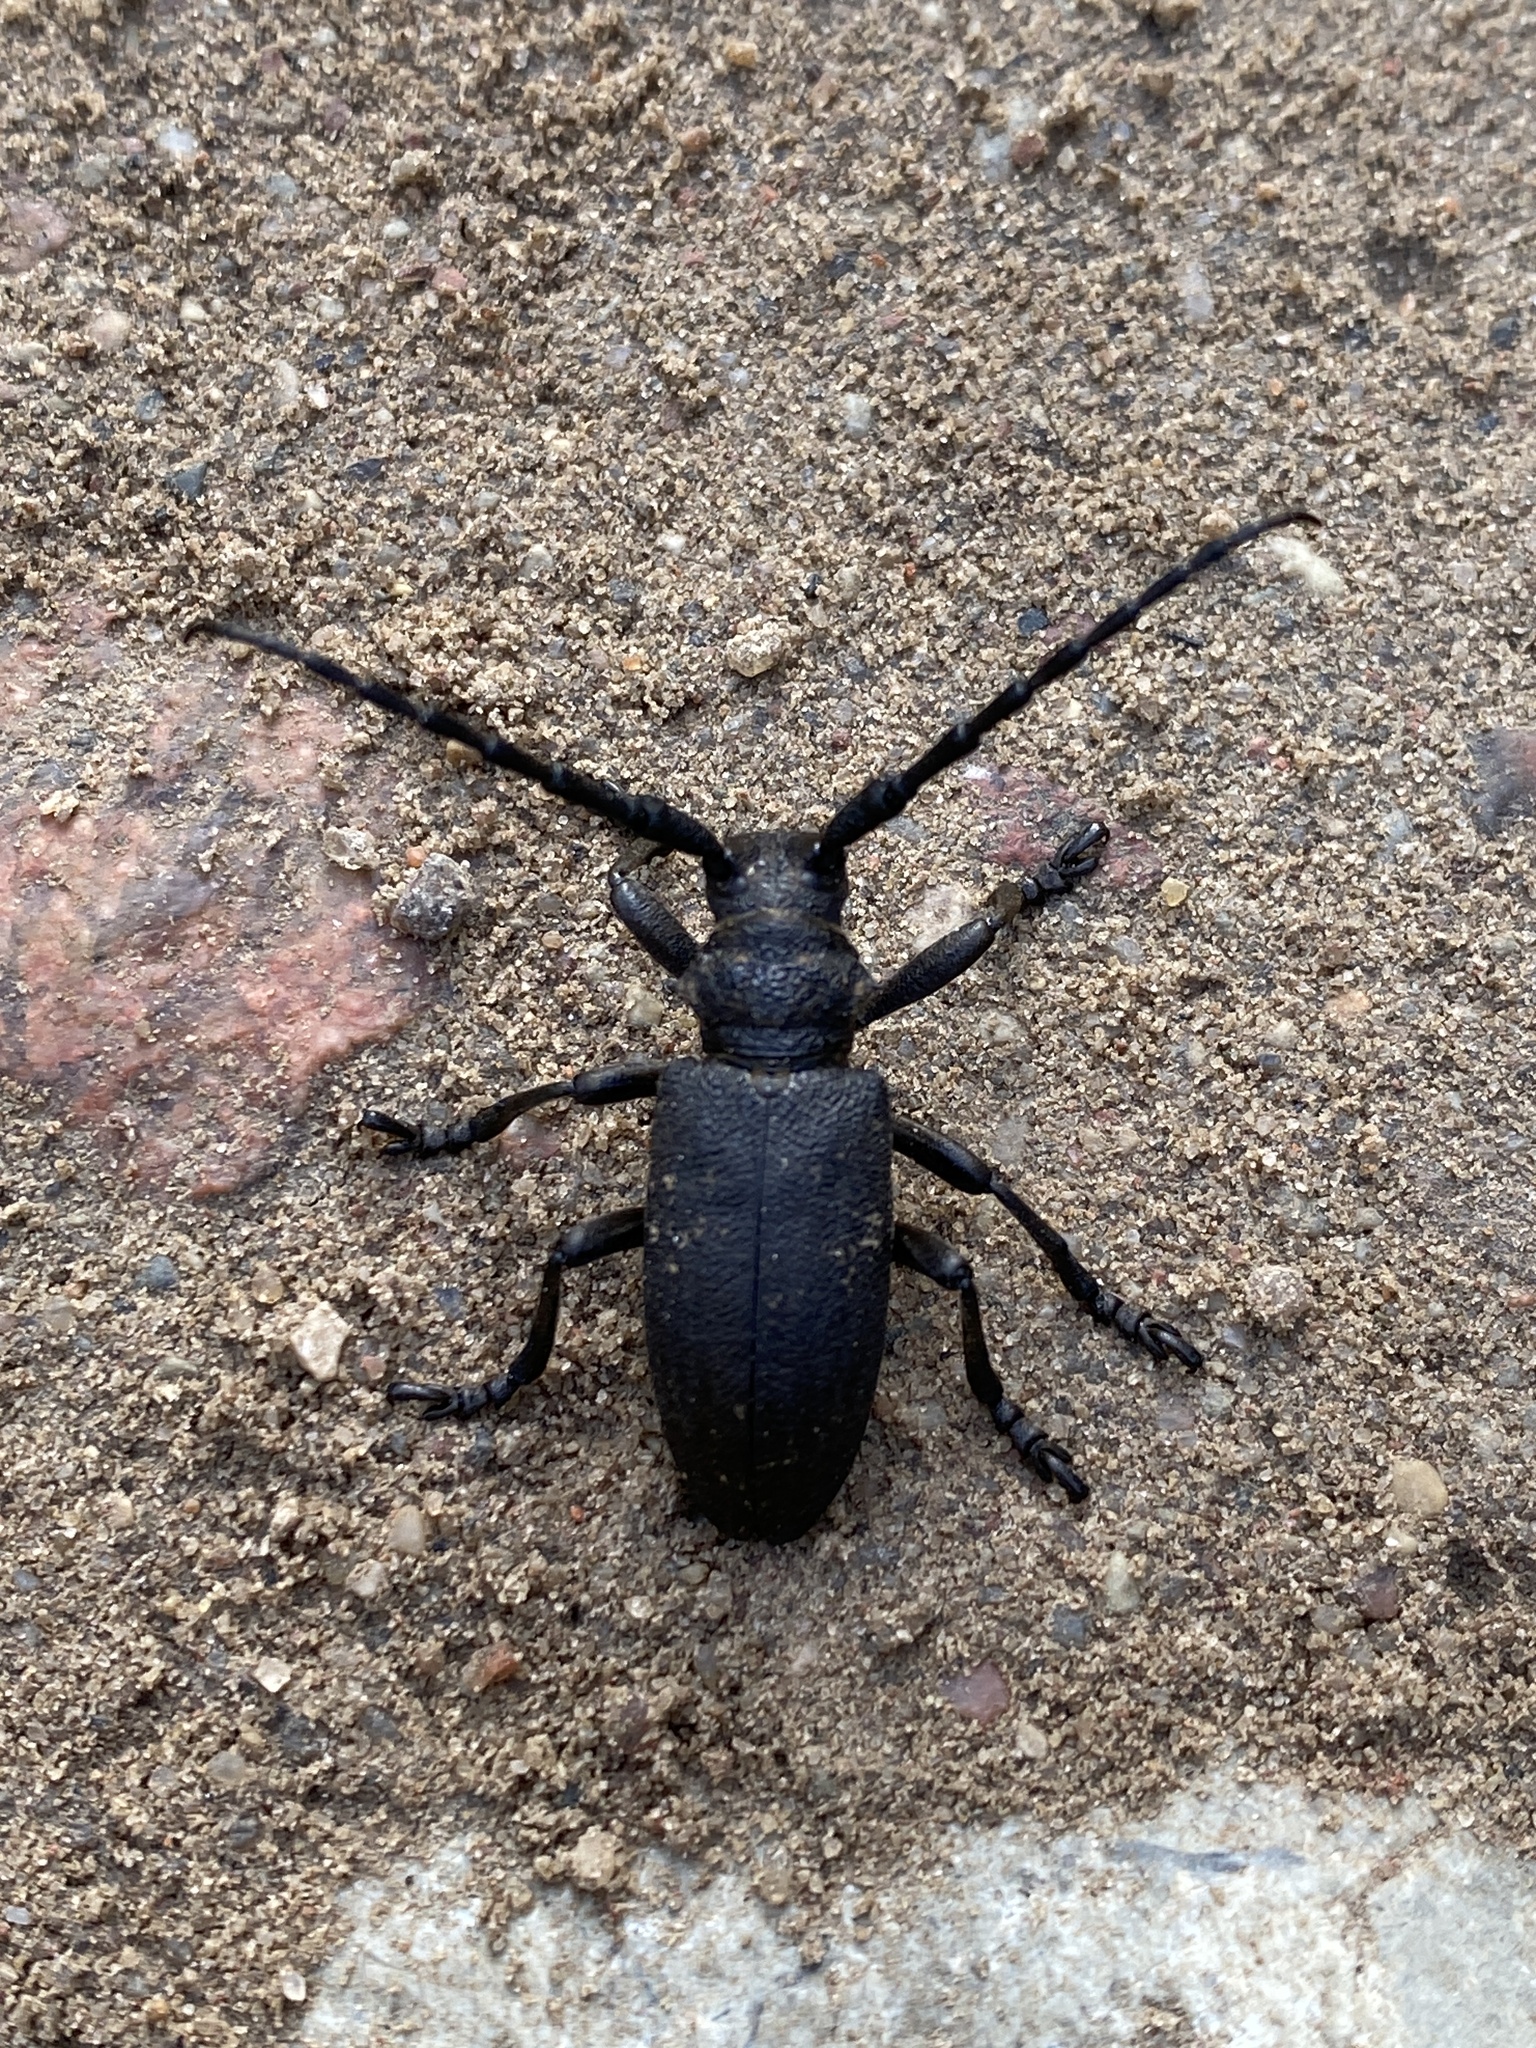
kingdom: Animalia
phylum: Arthropoda
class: Insecta
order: Coleoptera
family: Cerambycidae
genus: Lamia
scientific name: Lamia textor
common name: Weaver beetle
